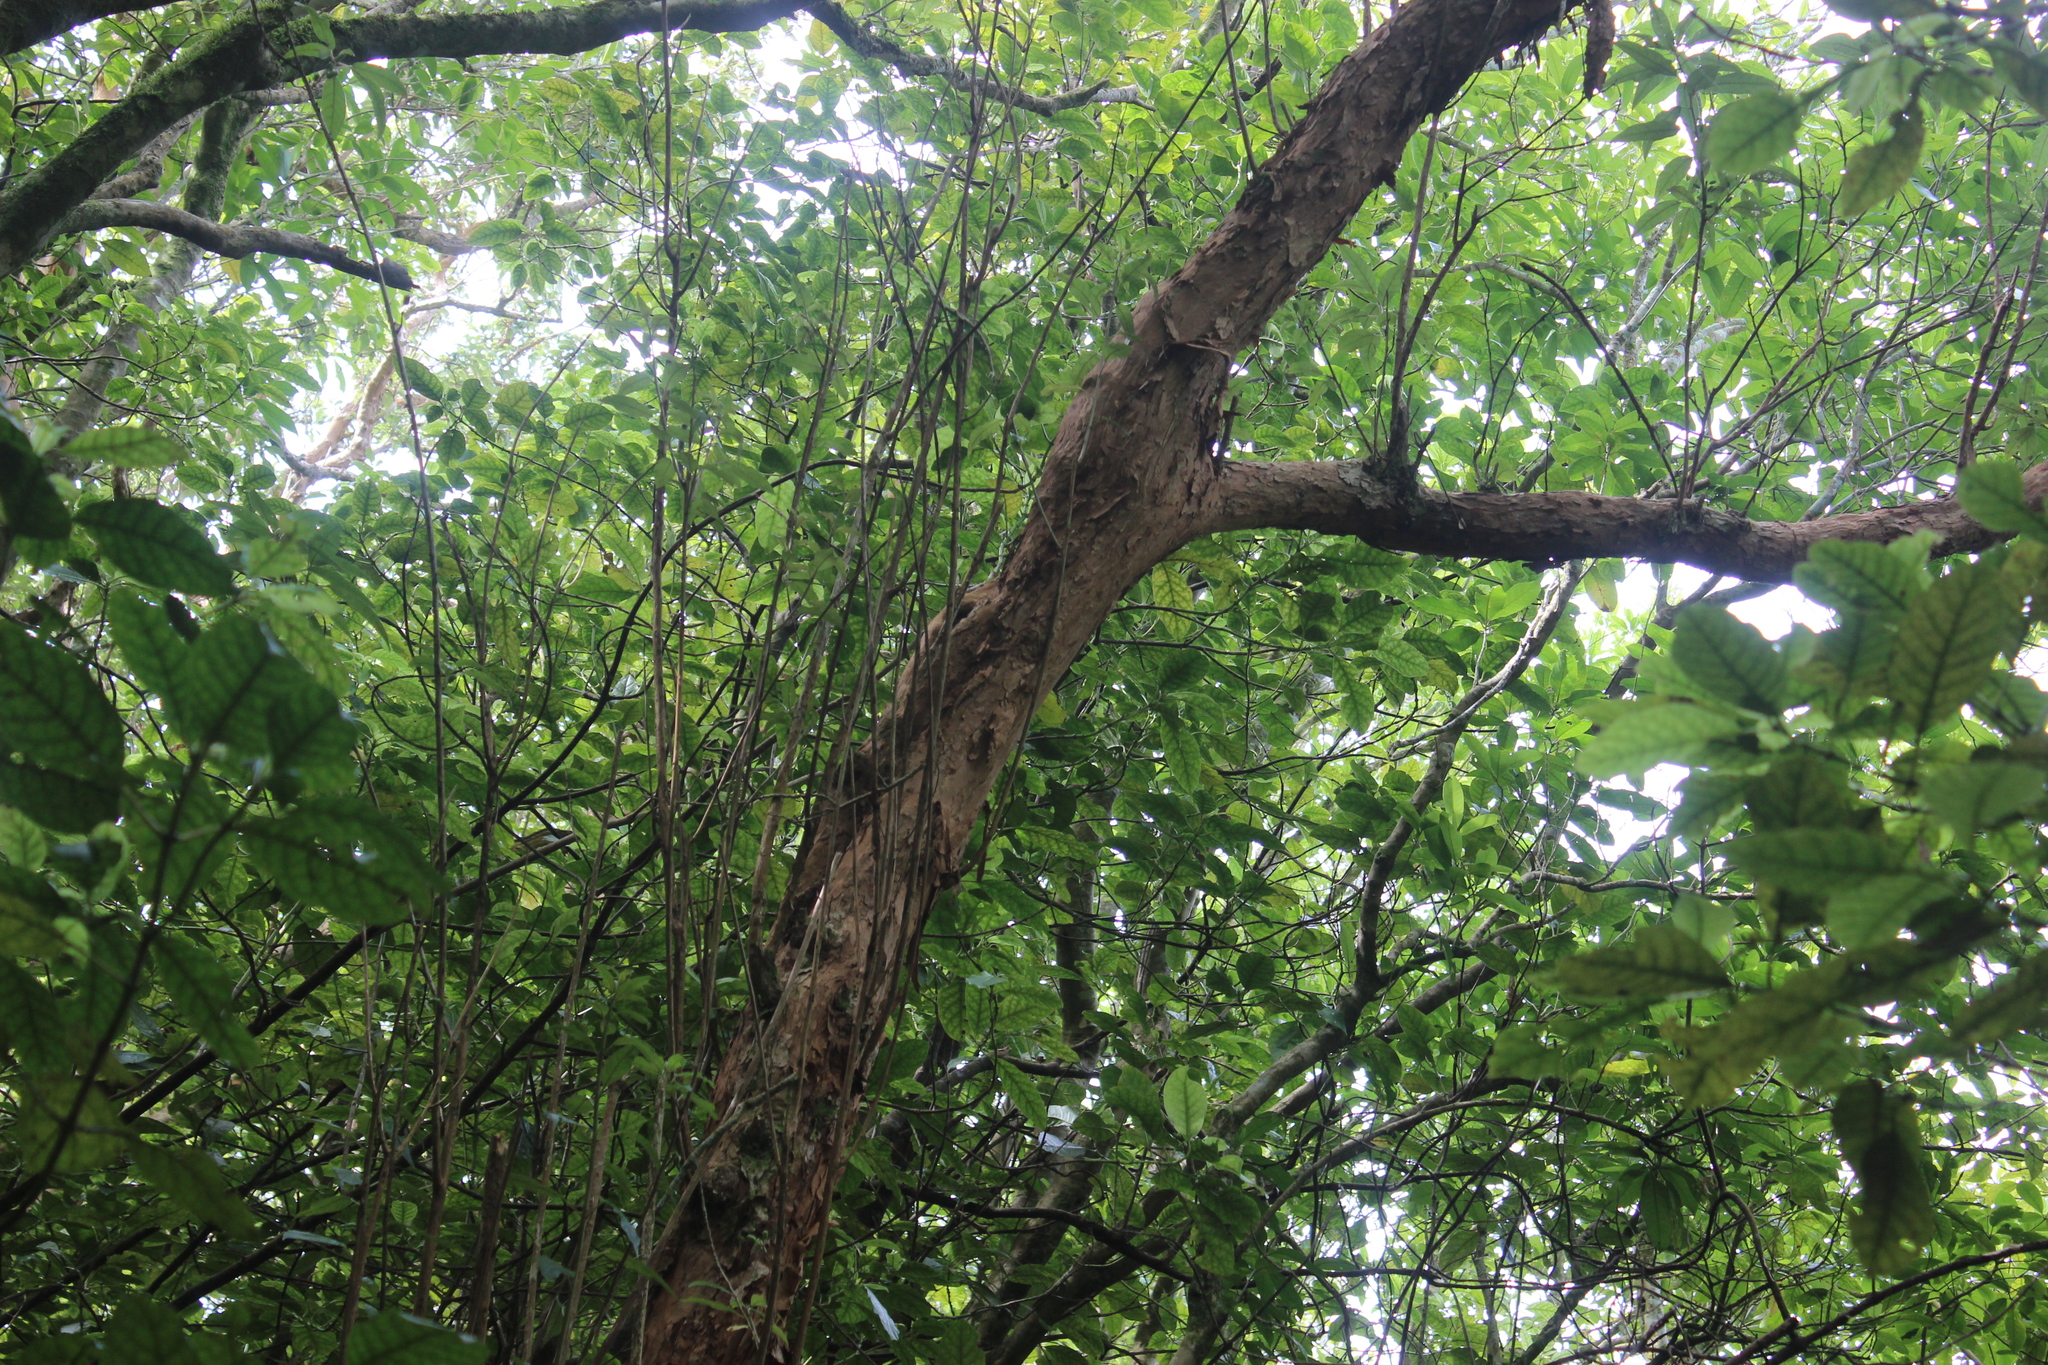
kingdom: Plantae
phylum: Tracheophyta
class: Magnoliopsida
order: Myrtales
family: Onagraceae
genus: Fuchsia
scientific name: Fuchsia excorticata
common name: Tree fuchsia
